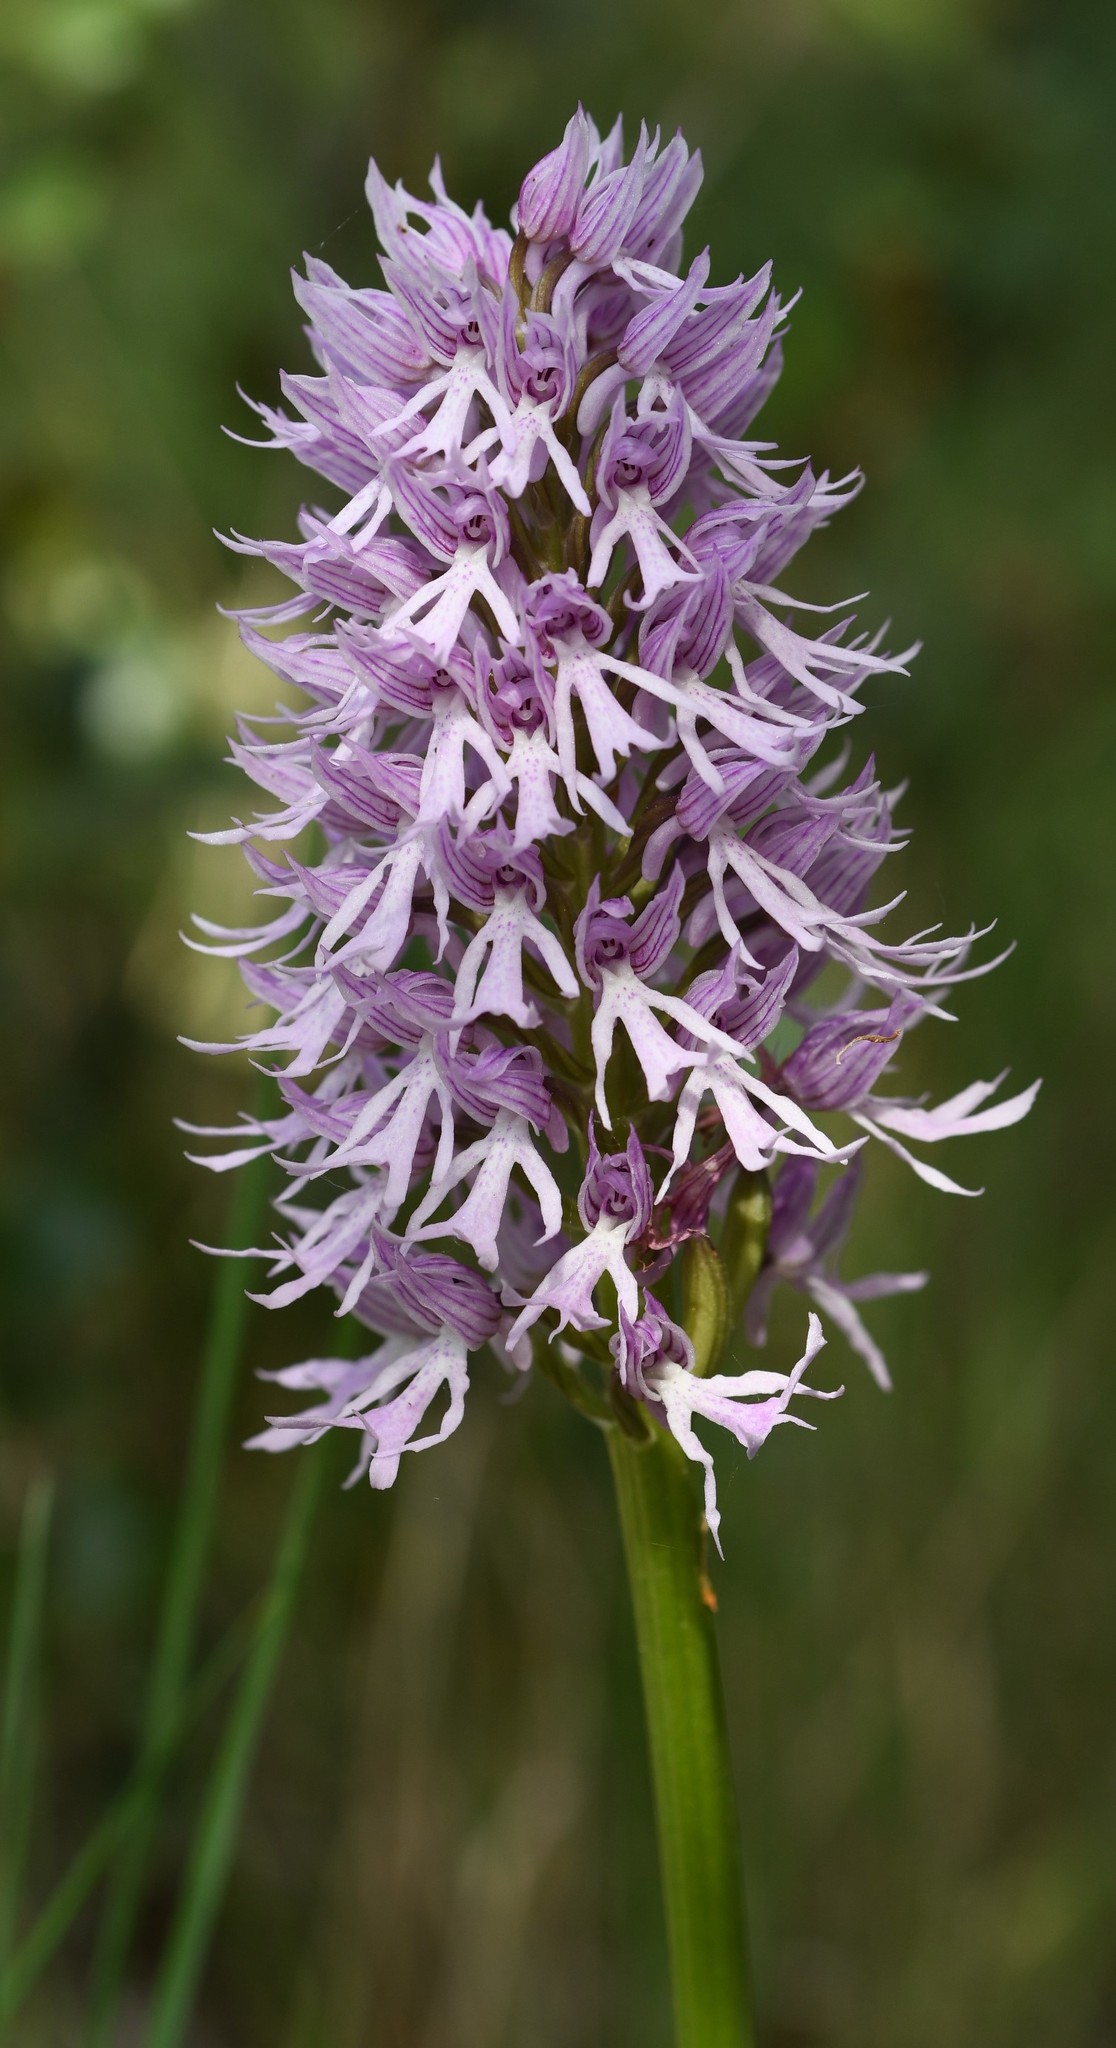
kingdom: Plantae
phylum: Tracheophyta
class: Liliopsida
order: Asparagales
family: Orchidaceae
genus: Orchis
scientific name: Orchis italica
